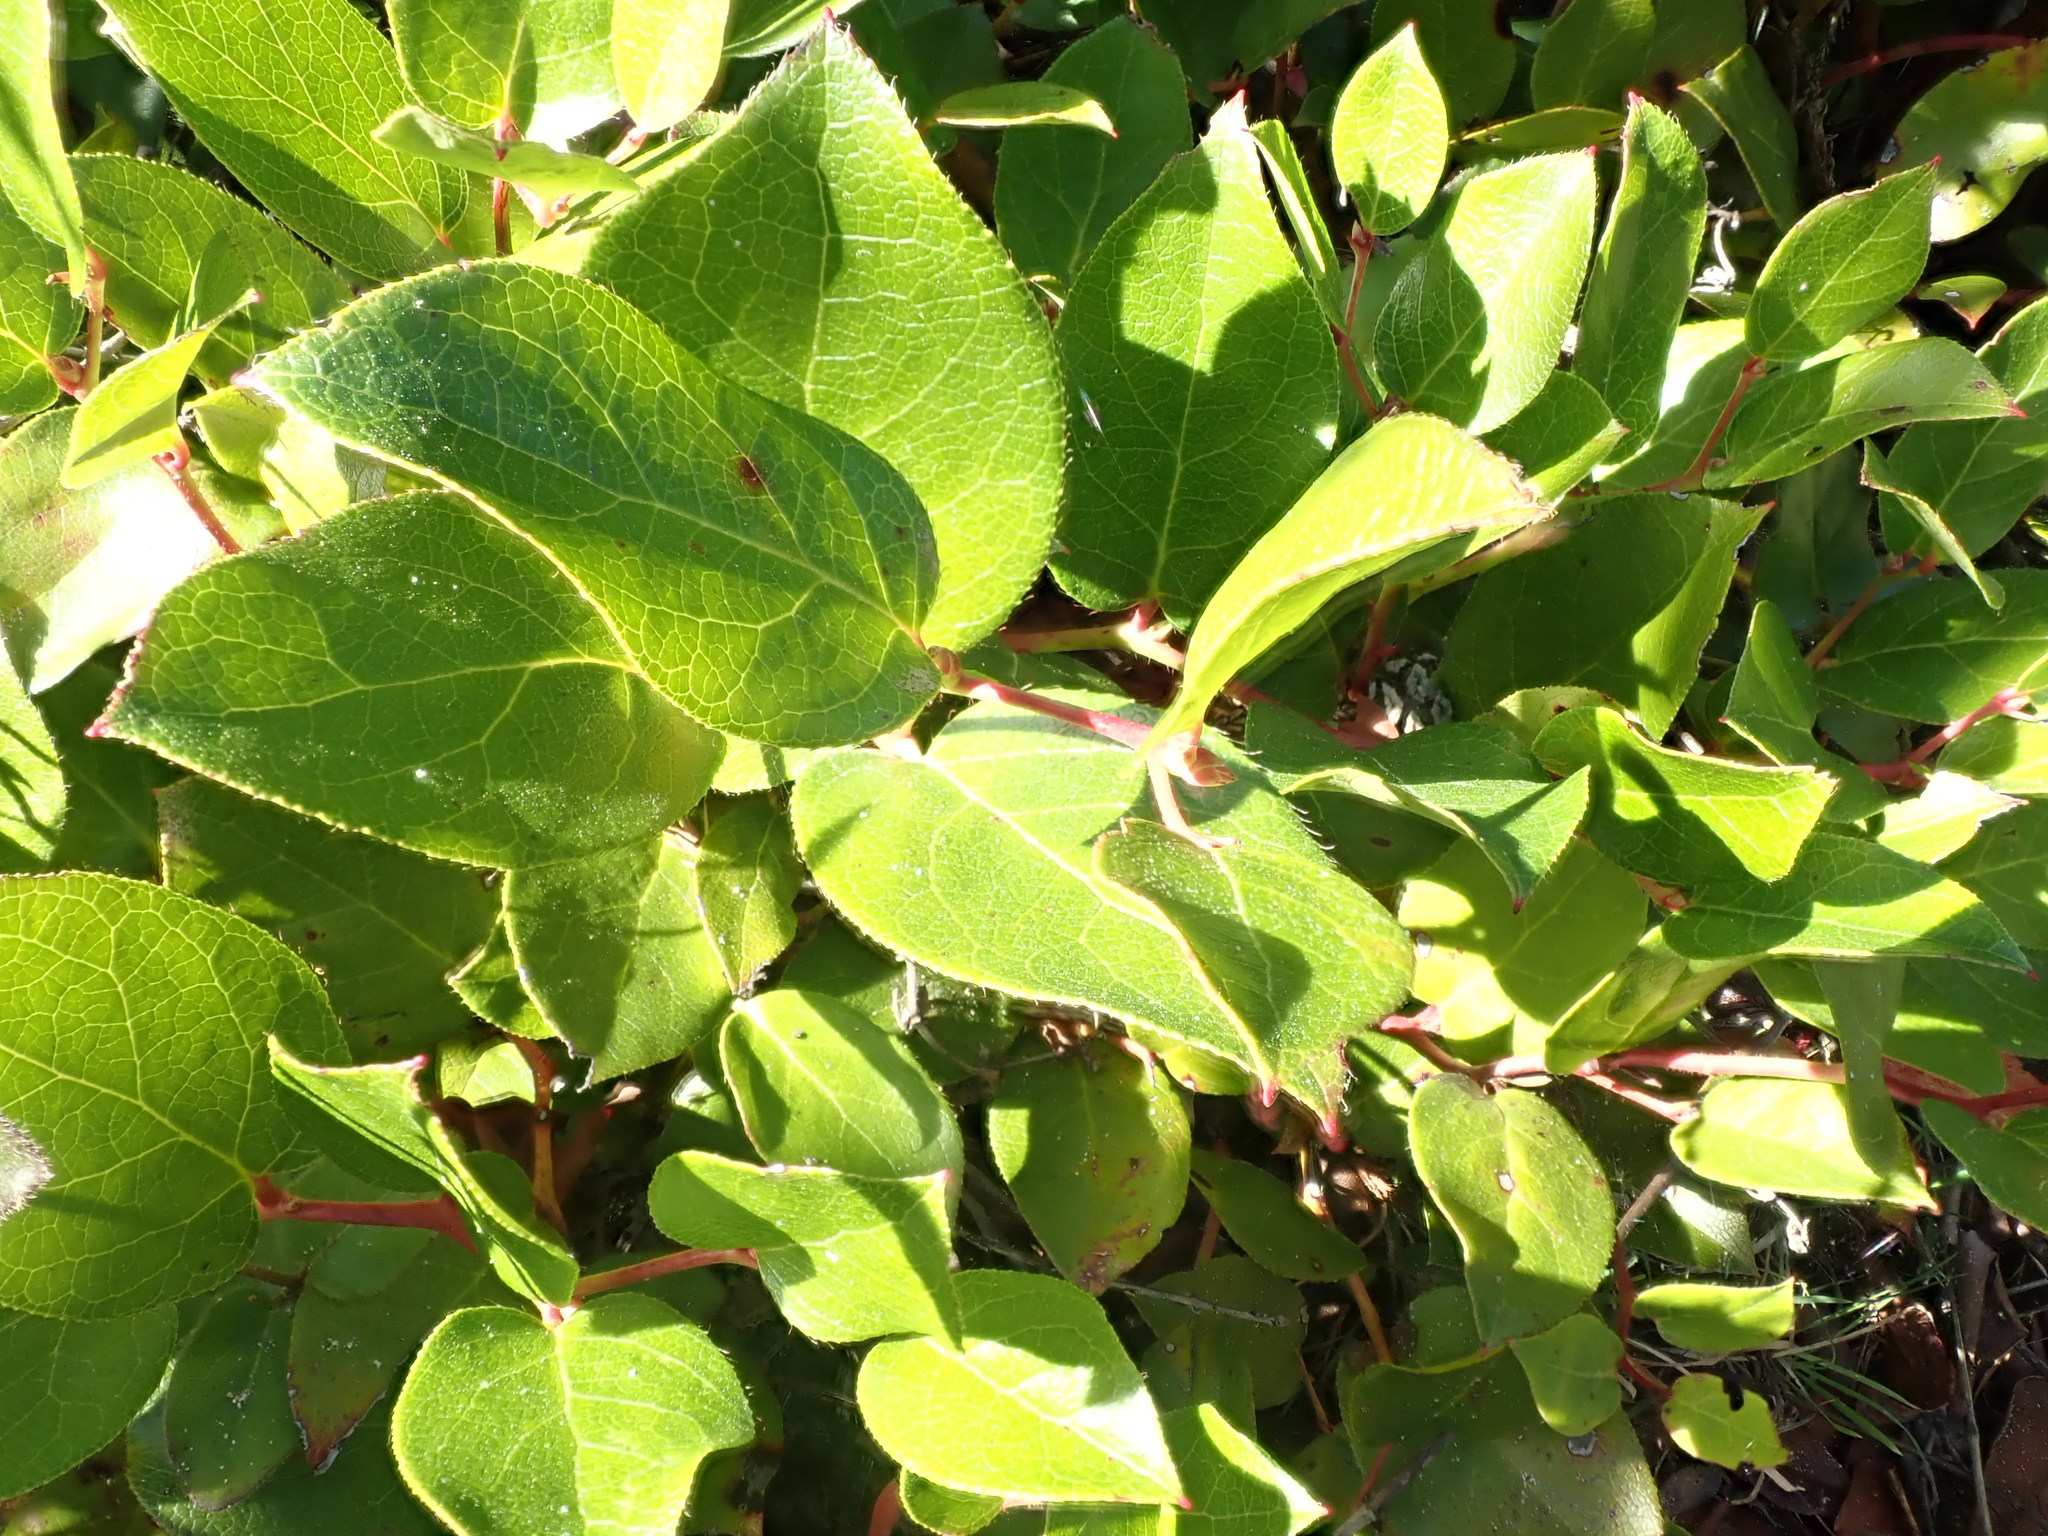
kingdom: Plantae
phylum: Tracheophyta
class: Magnoliopsida
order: Ericales
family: Ericaceae
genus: Gaultheria
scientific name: Gaultheria shallon
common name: Shallon
